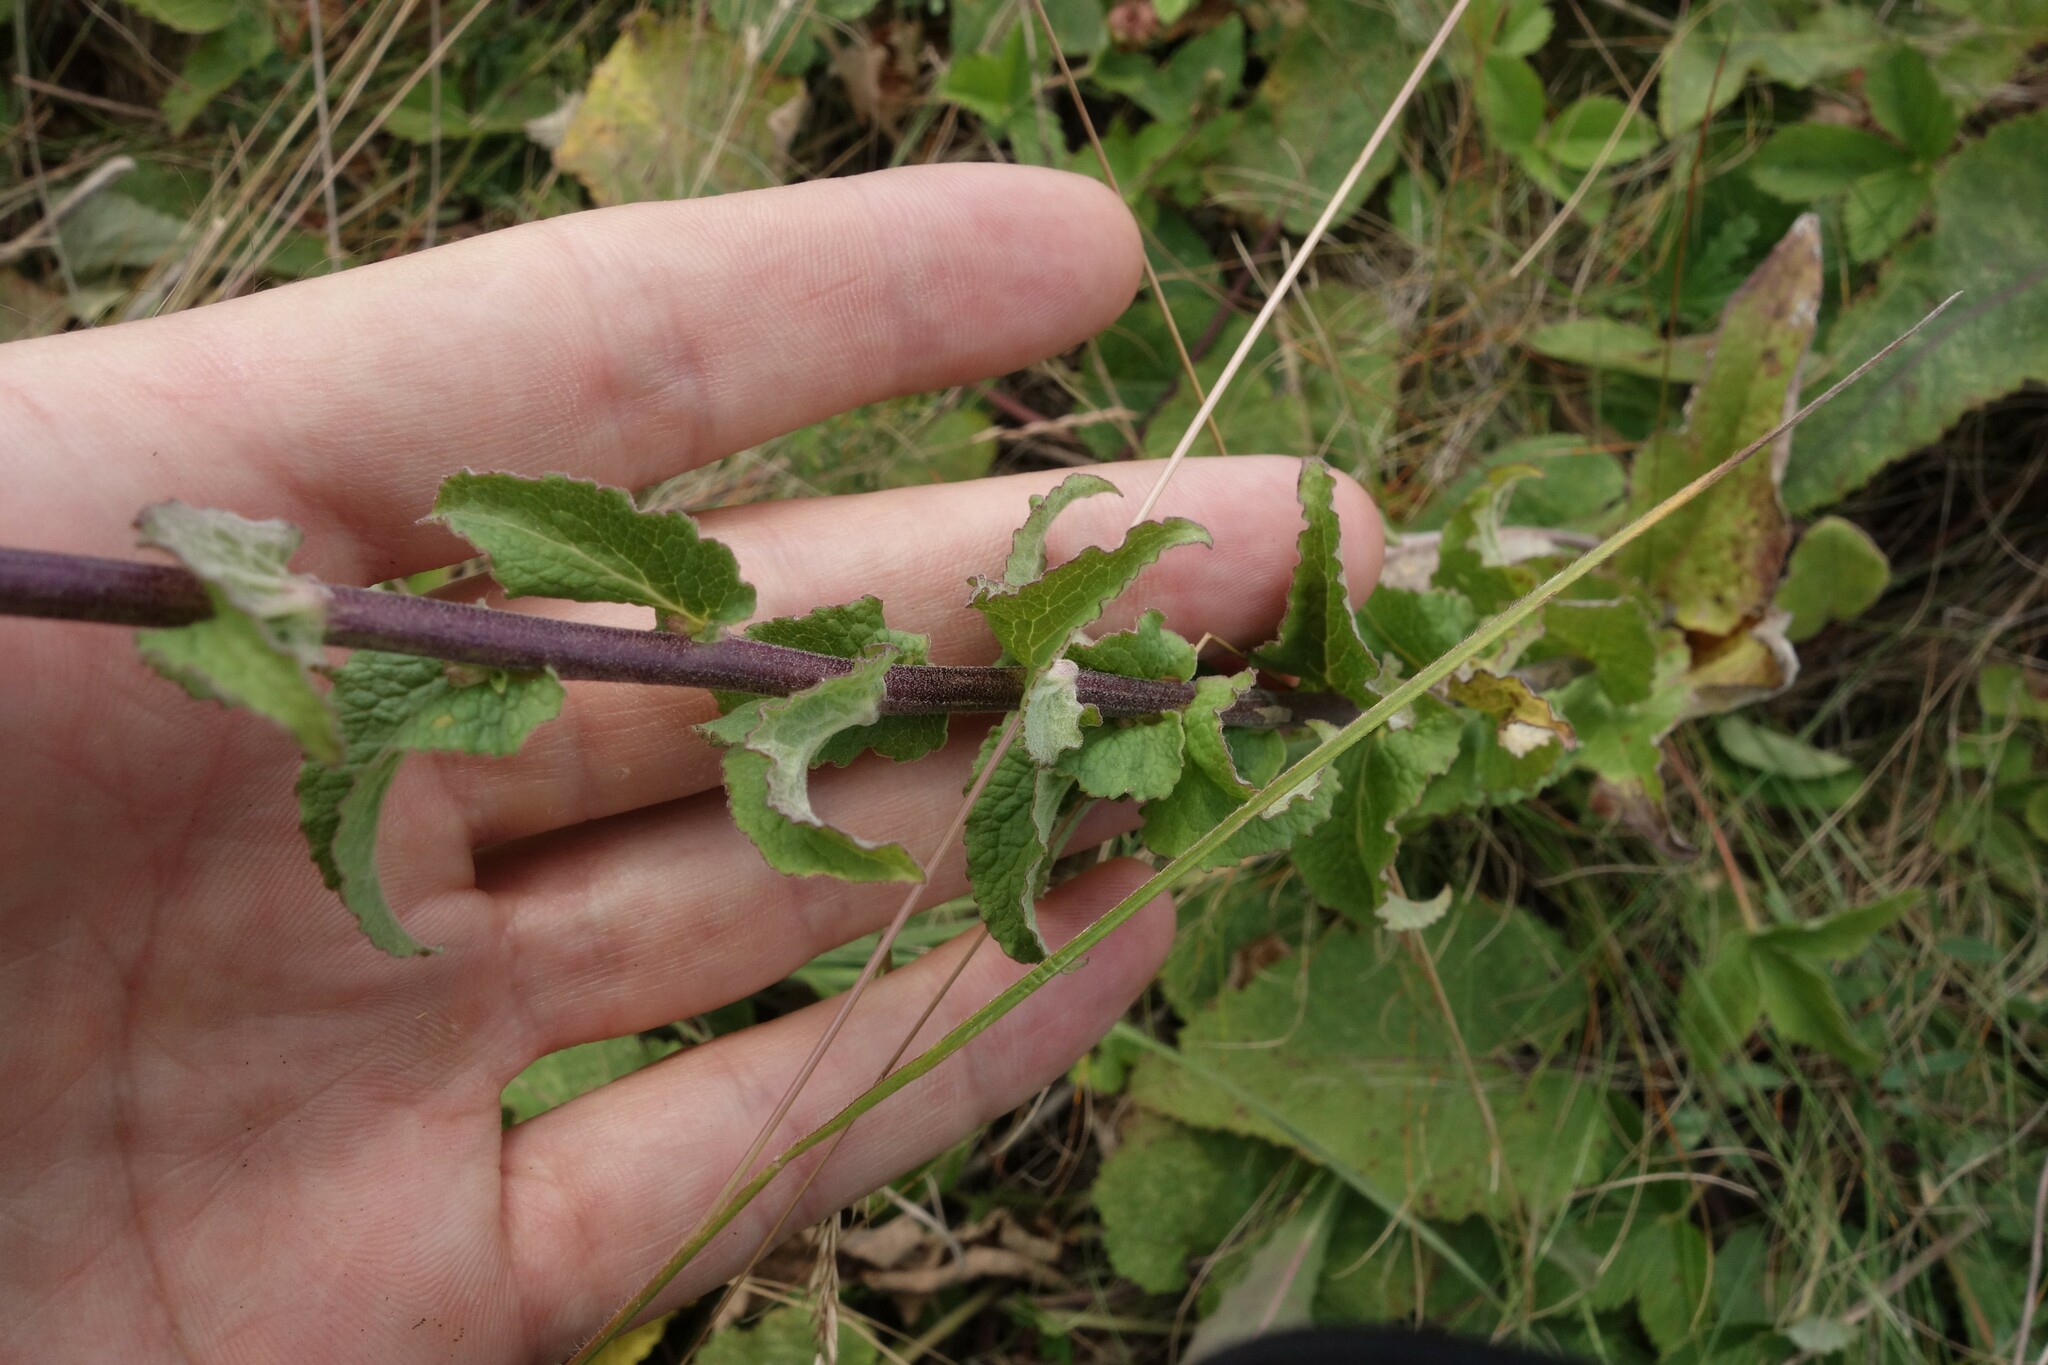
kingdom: Plantae
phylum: Tracheophyta
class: Magnoliopsida
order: Asterales
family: Campanulaceae
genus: Campanula
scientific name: Campanula bononiensis
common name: Pale bellflower
